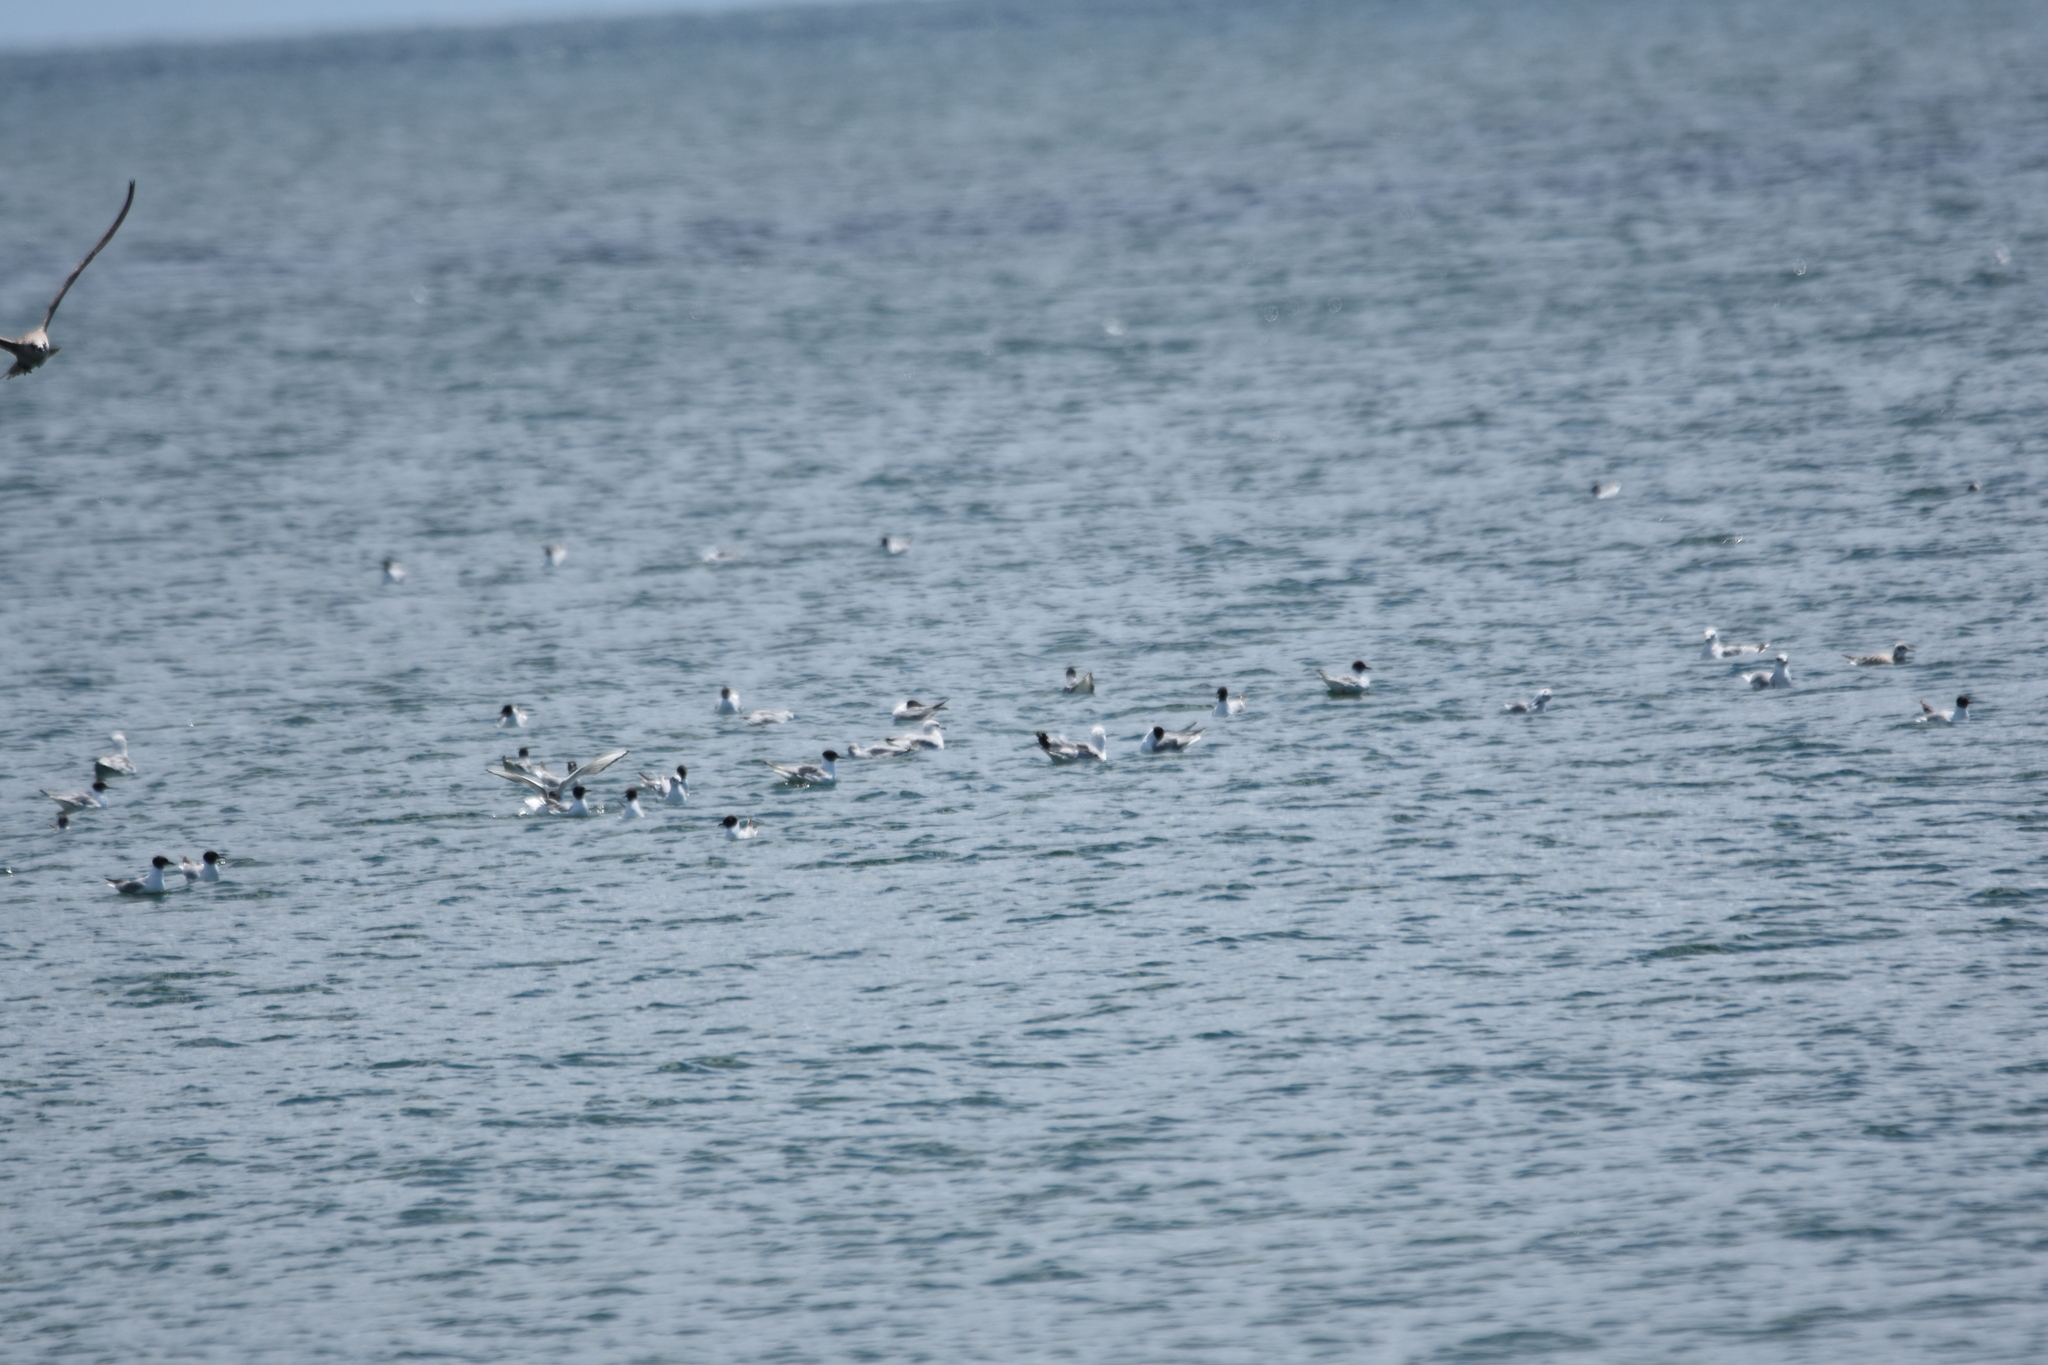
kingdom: Animalia
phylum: Chordata
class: Aves
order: Charadriiformes
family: Laridae
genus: Chroicocephalus
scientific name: Chroicocephalus philadelphia
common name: Bonaparte's gull
